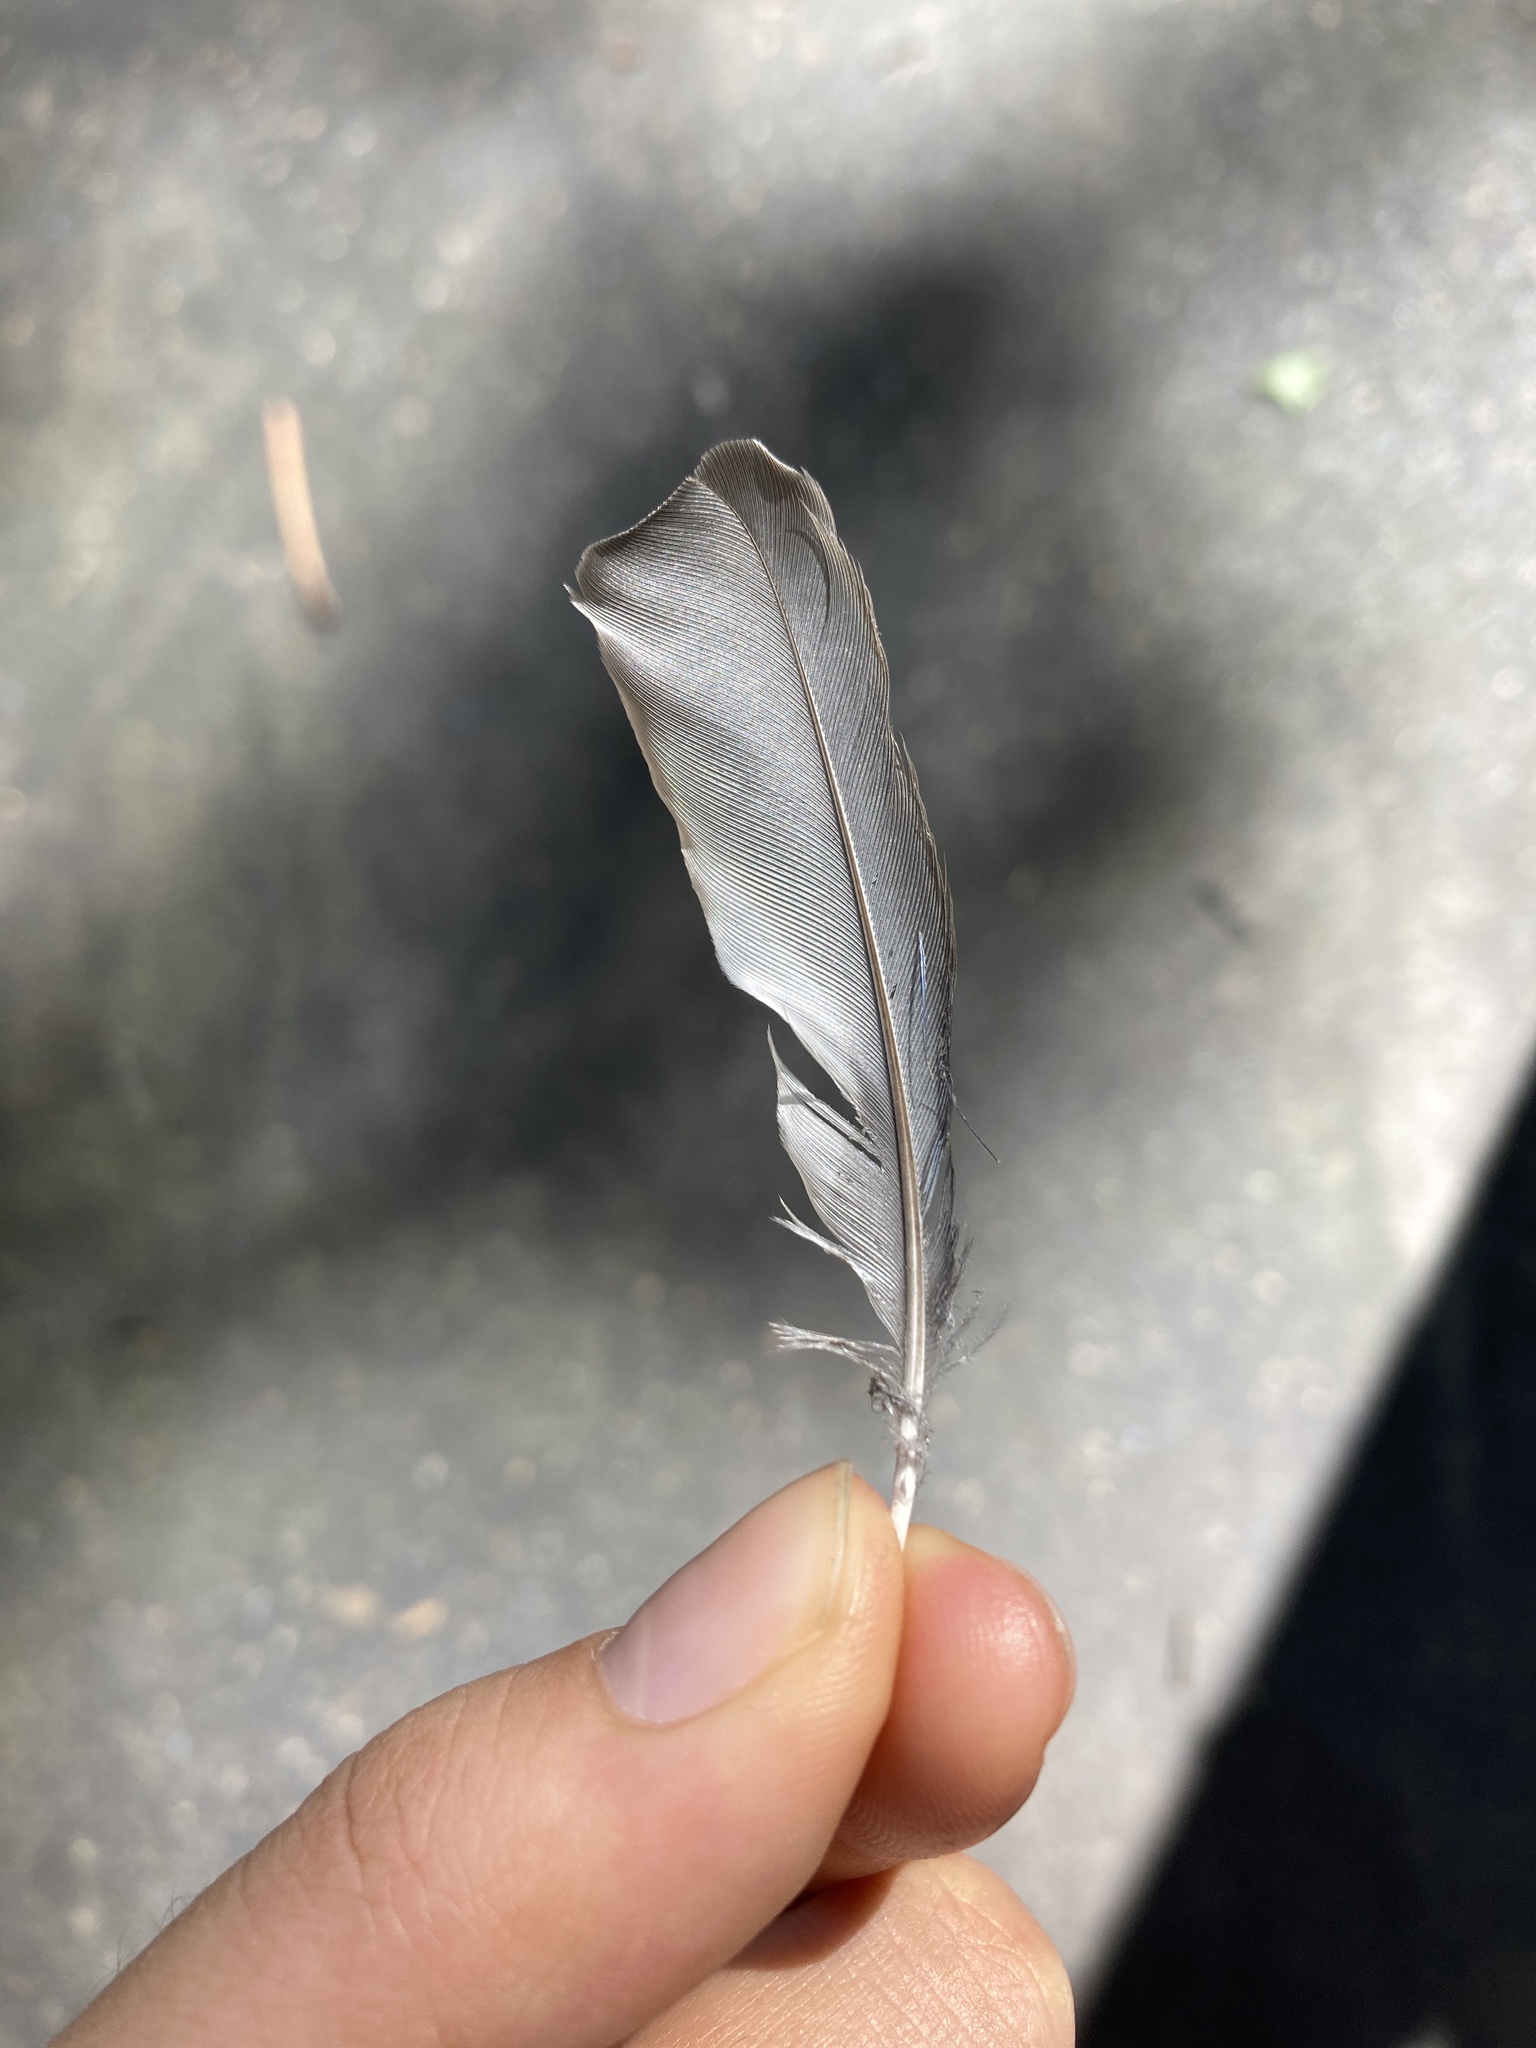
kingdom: Animalia
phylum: Chordata
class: Aves
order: Passeriformes
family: Turdidae
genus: Sialia
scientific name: Sialia sialis
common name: Eastern bluebird
